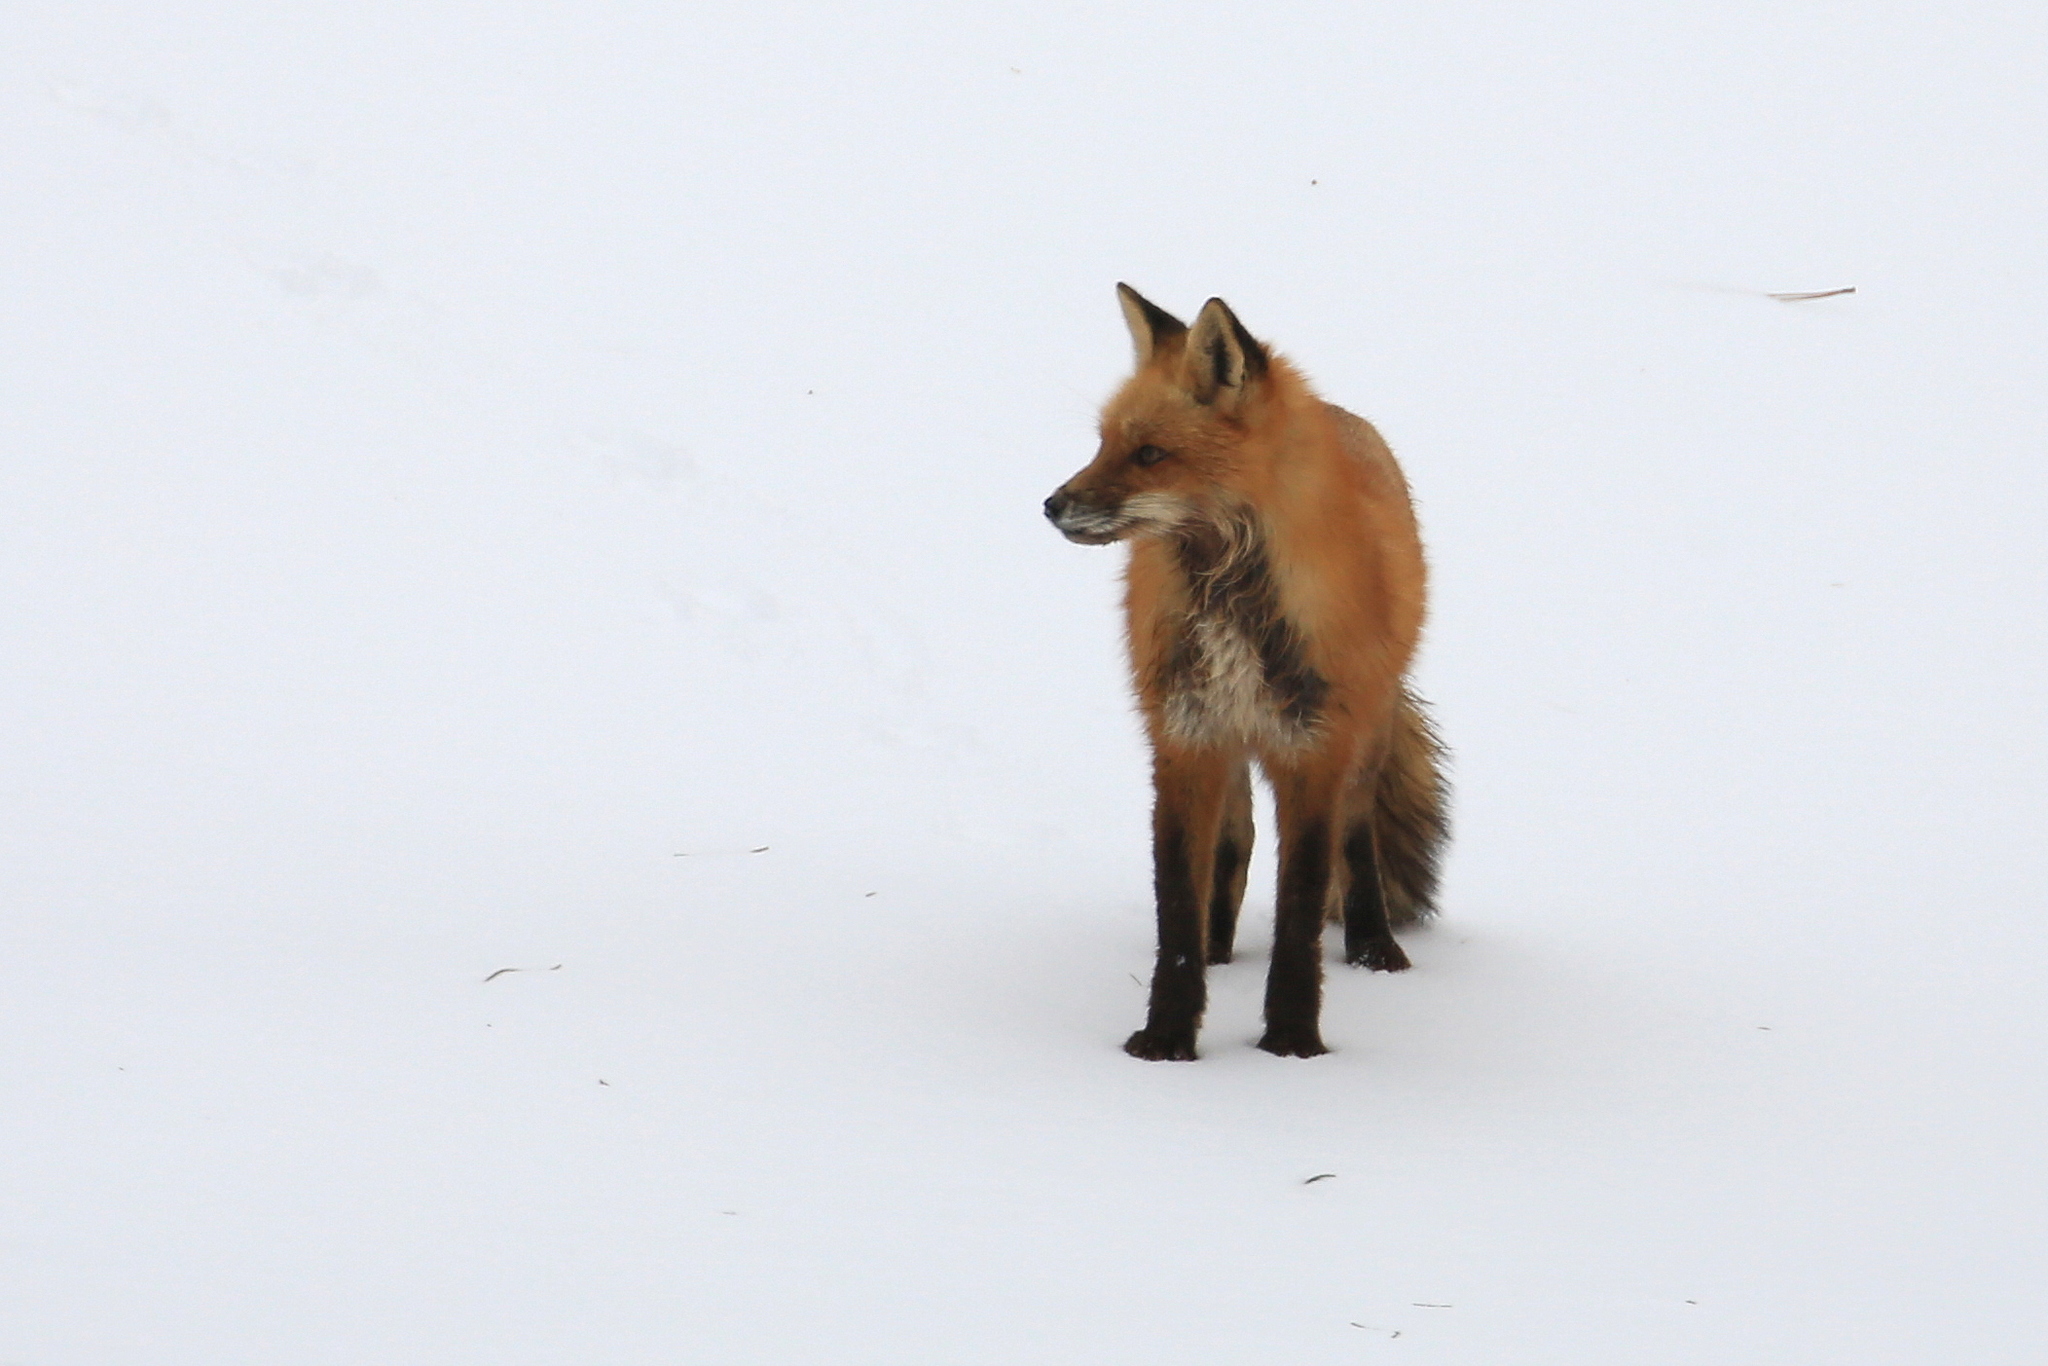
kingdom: Animalia
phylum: Chordata
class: Mammalia
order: Carnivora
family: Canidae
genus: Vulpes
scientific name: Vulpes vulpes
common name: Red fox
